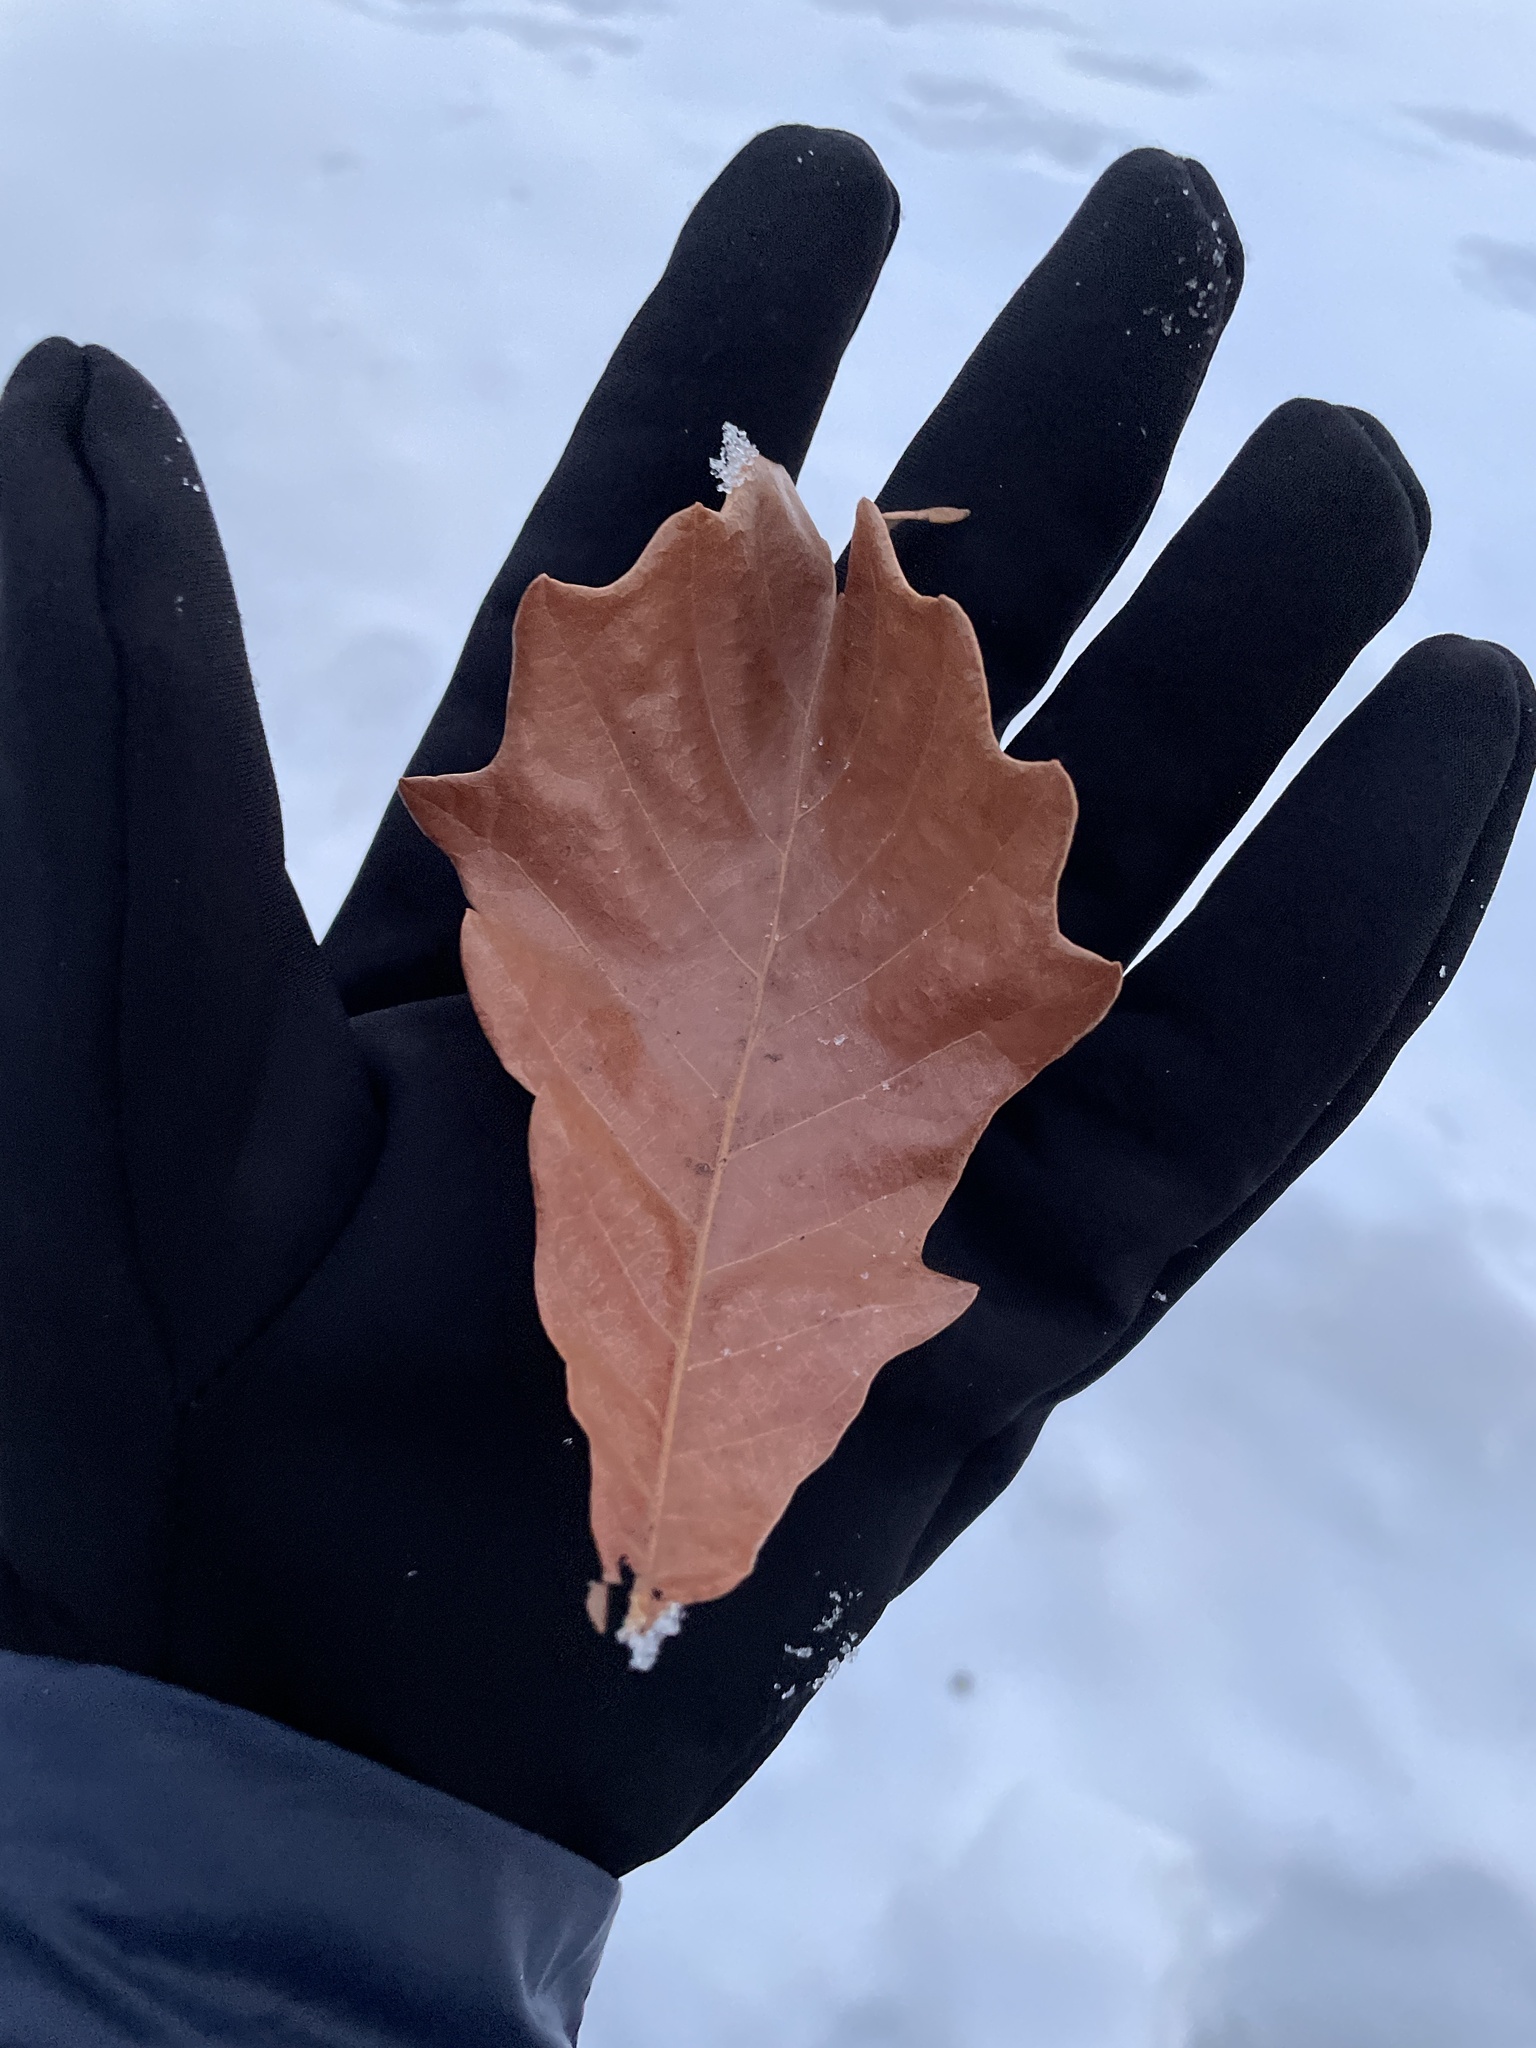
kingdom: Plantae
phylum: Tracheophyta
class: Magnoliopsida
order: Fagales
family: Fagaceae
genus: Quercus
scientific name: Quercus bicolor
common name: Swamp white oak
